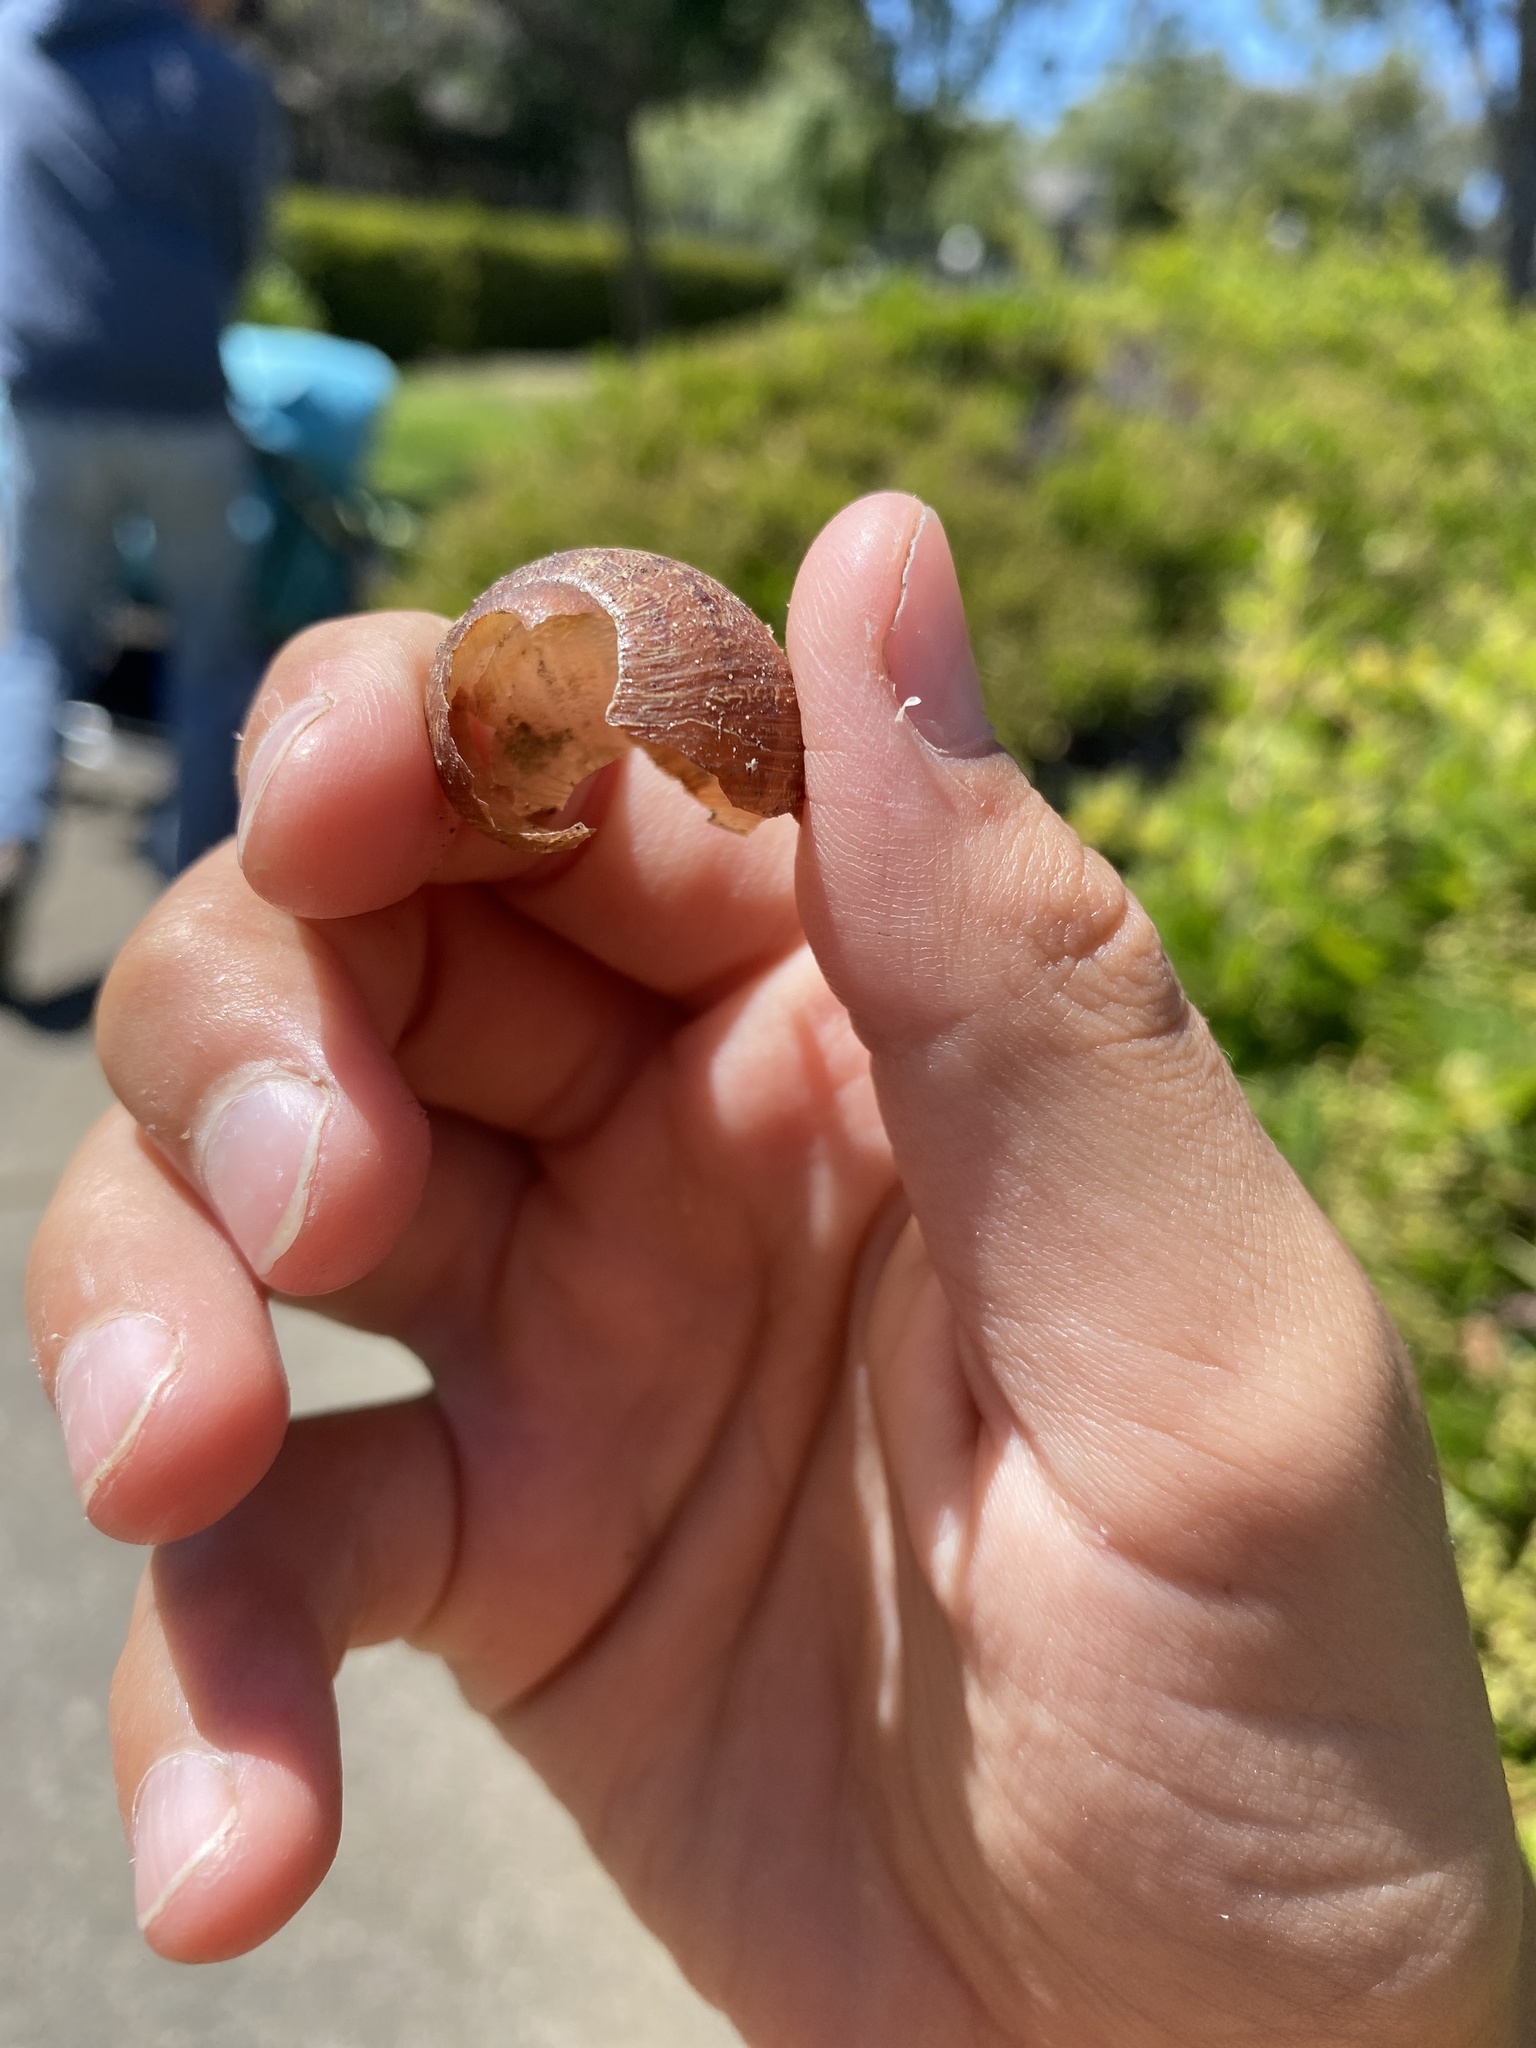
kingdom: Animalia
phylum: Mollusca
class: Gastropoda
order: Stylommatophora
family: Helicidae
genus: Cornu
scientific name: Cornu aspersum
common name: Brown garden snail
